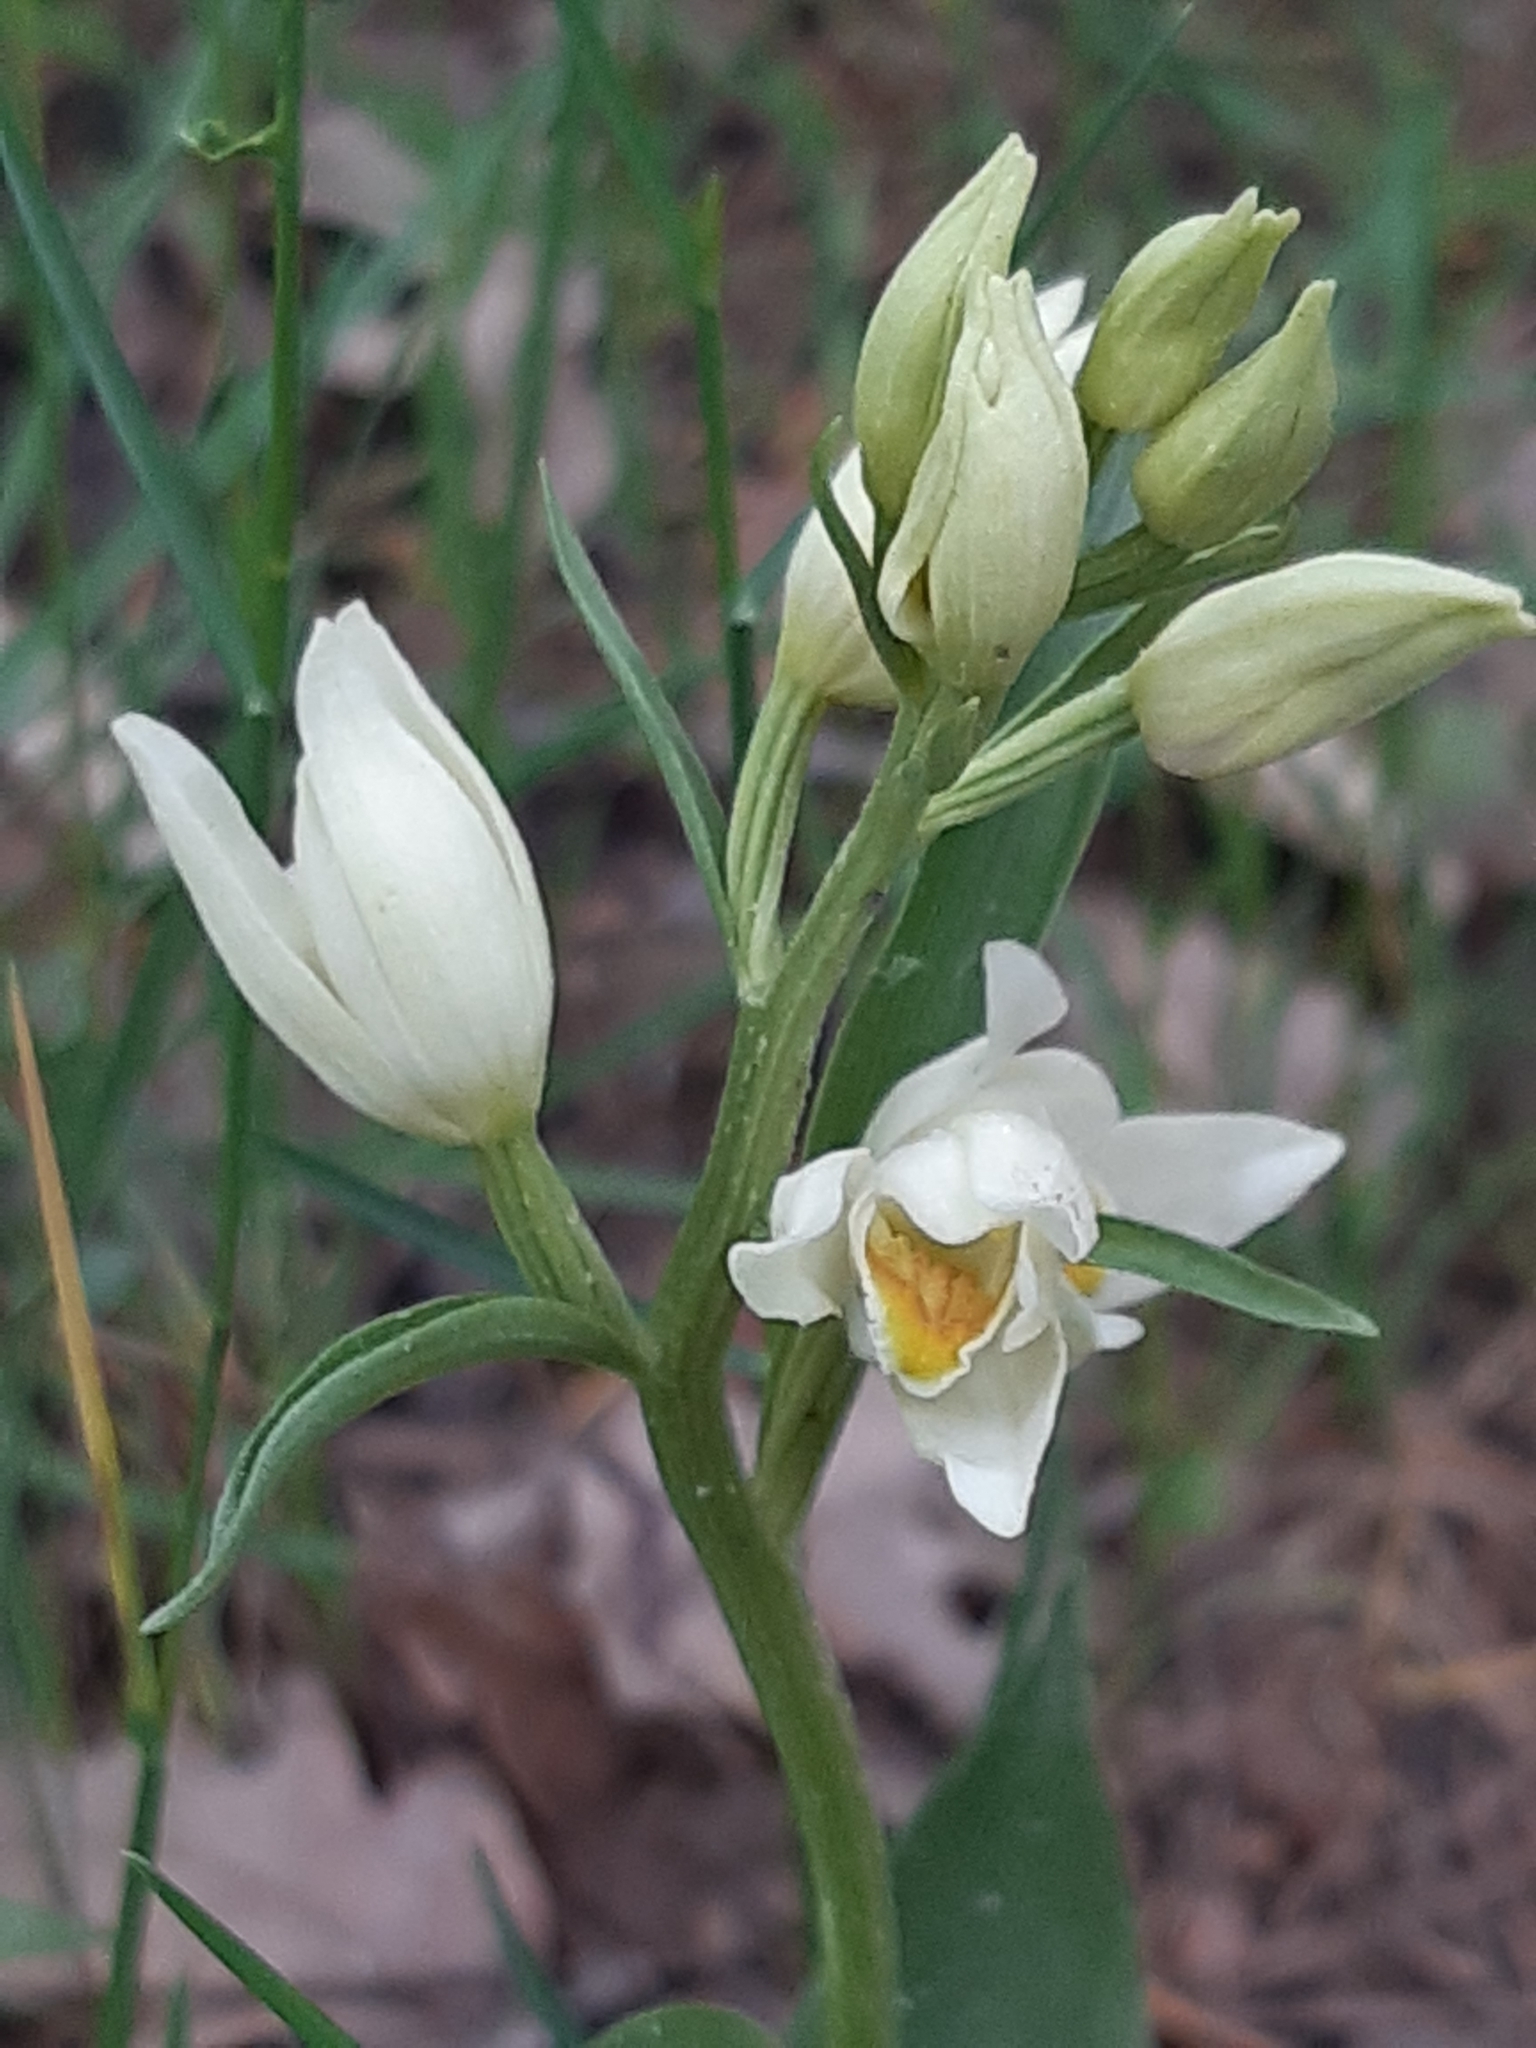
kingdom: Plantae
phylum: Tracheophyta
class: Liliopsida
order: Asparagales
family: Orchidaceae
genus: Cephalanthera
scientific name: Cephalanthera damasonium
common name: White helleborine
